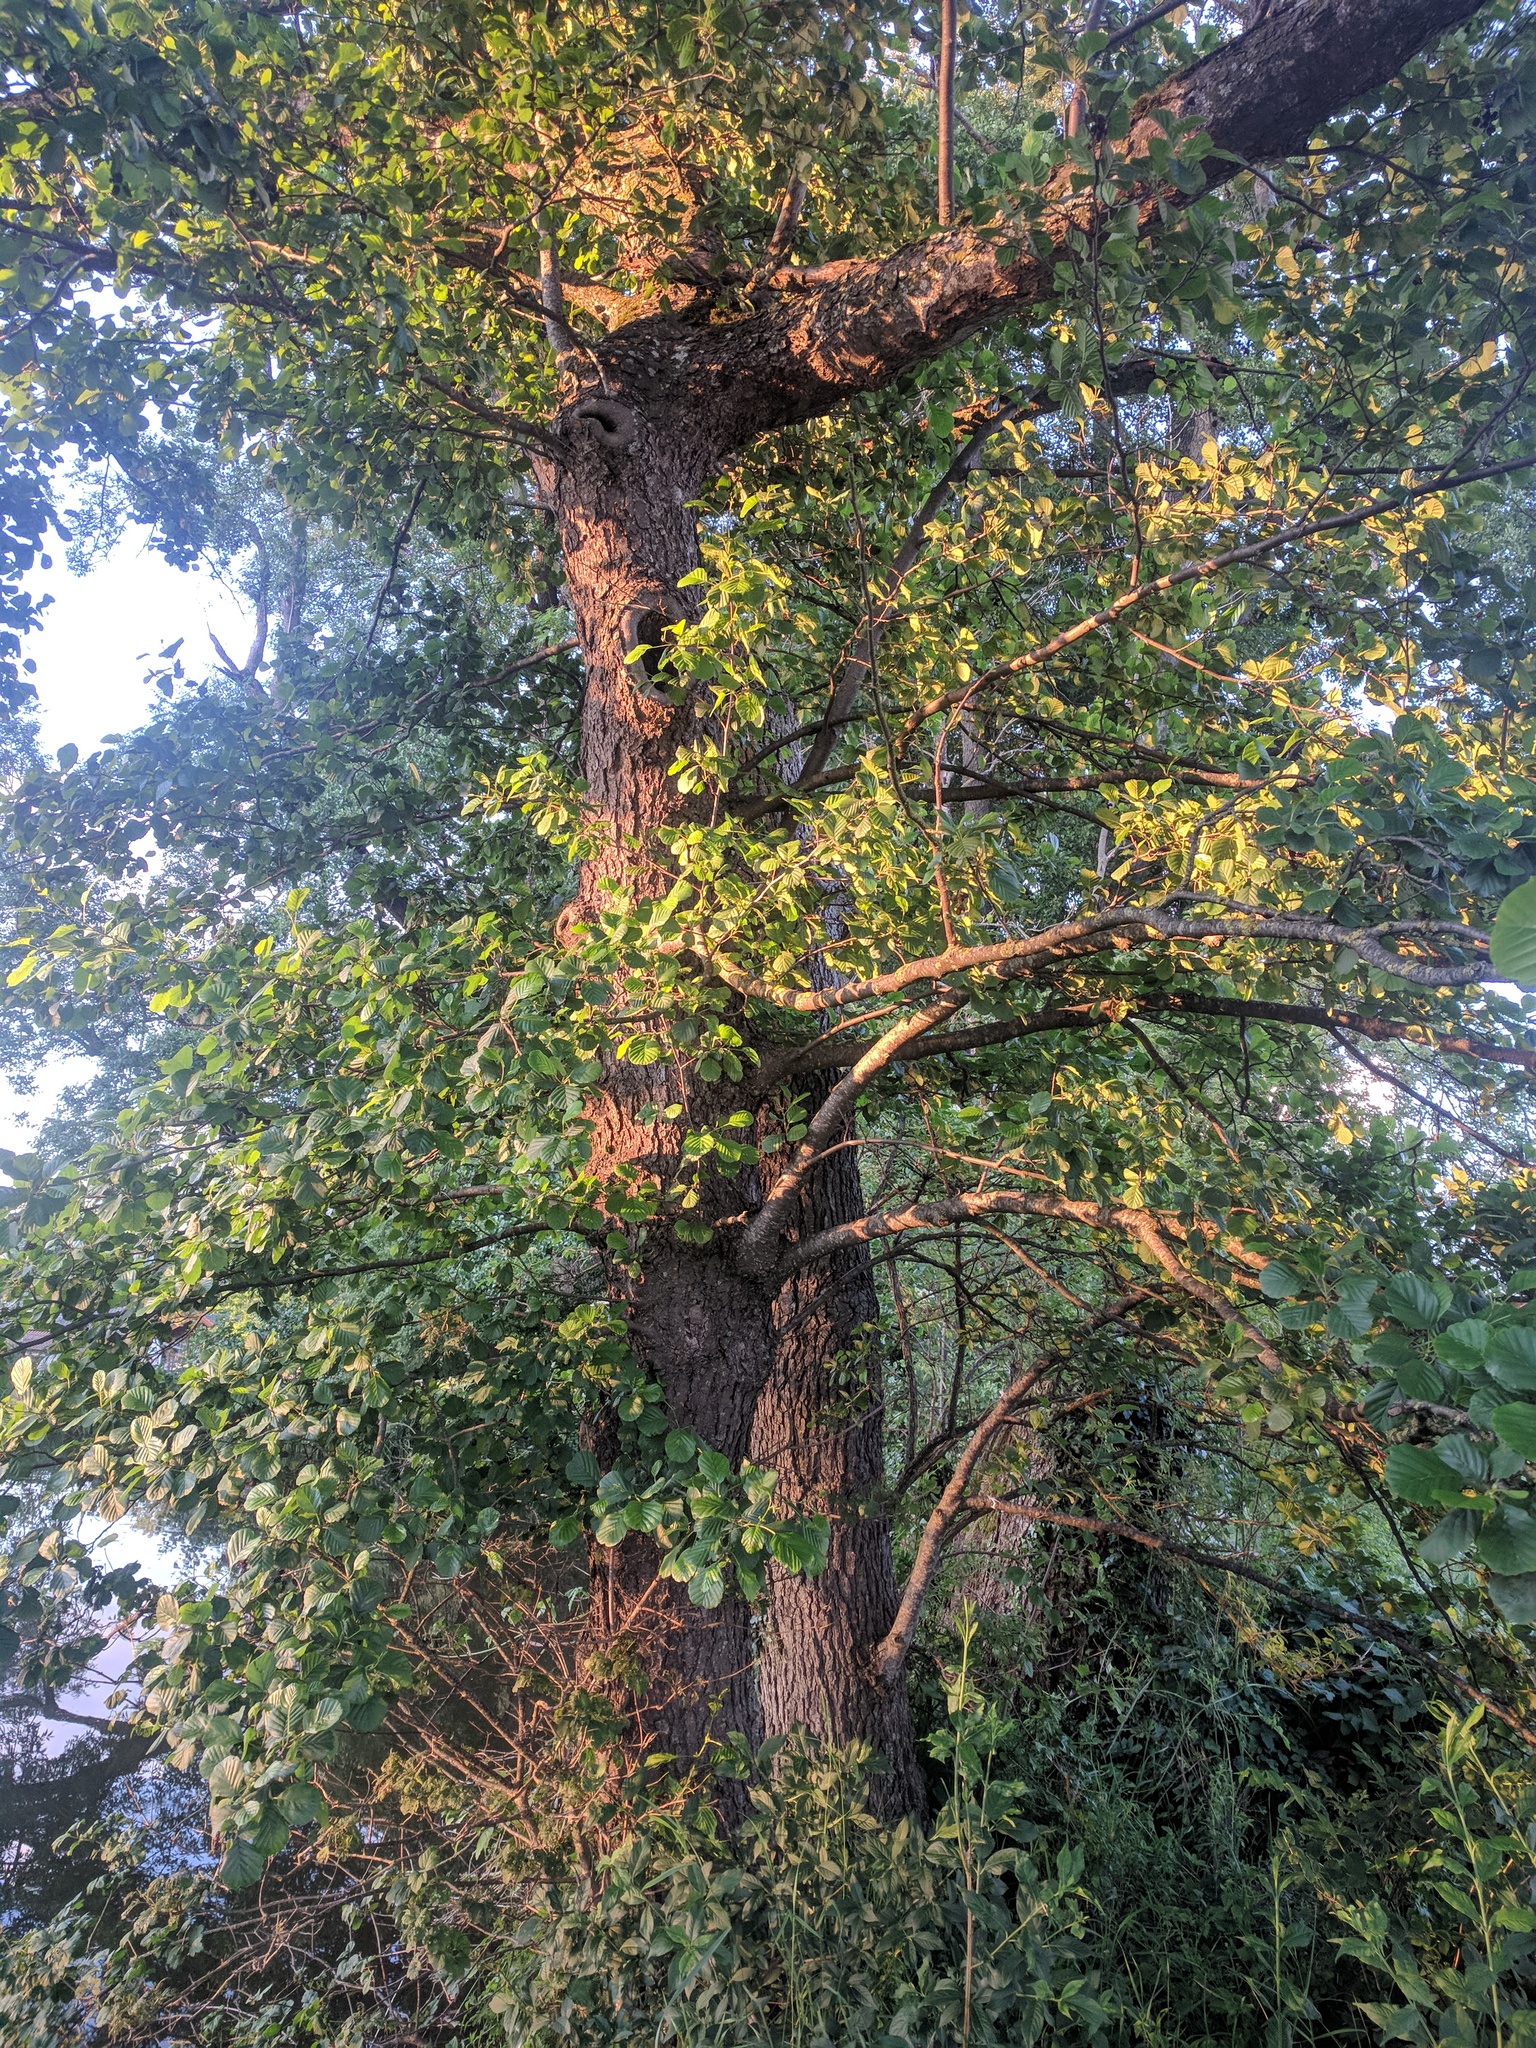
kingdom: Plantae
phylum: Tracheophyta
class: Magnoliopsida
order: Fagales
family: Betulaceae
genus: Alnus
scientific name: Alnus glutinosa
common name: Black alder
